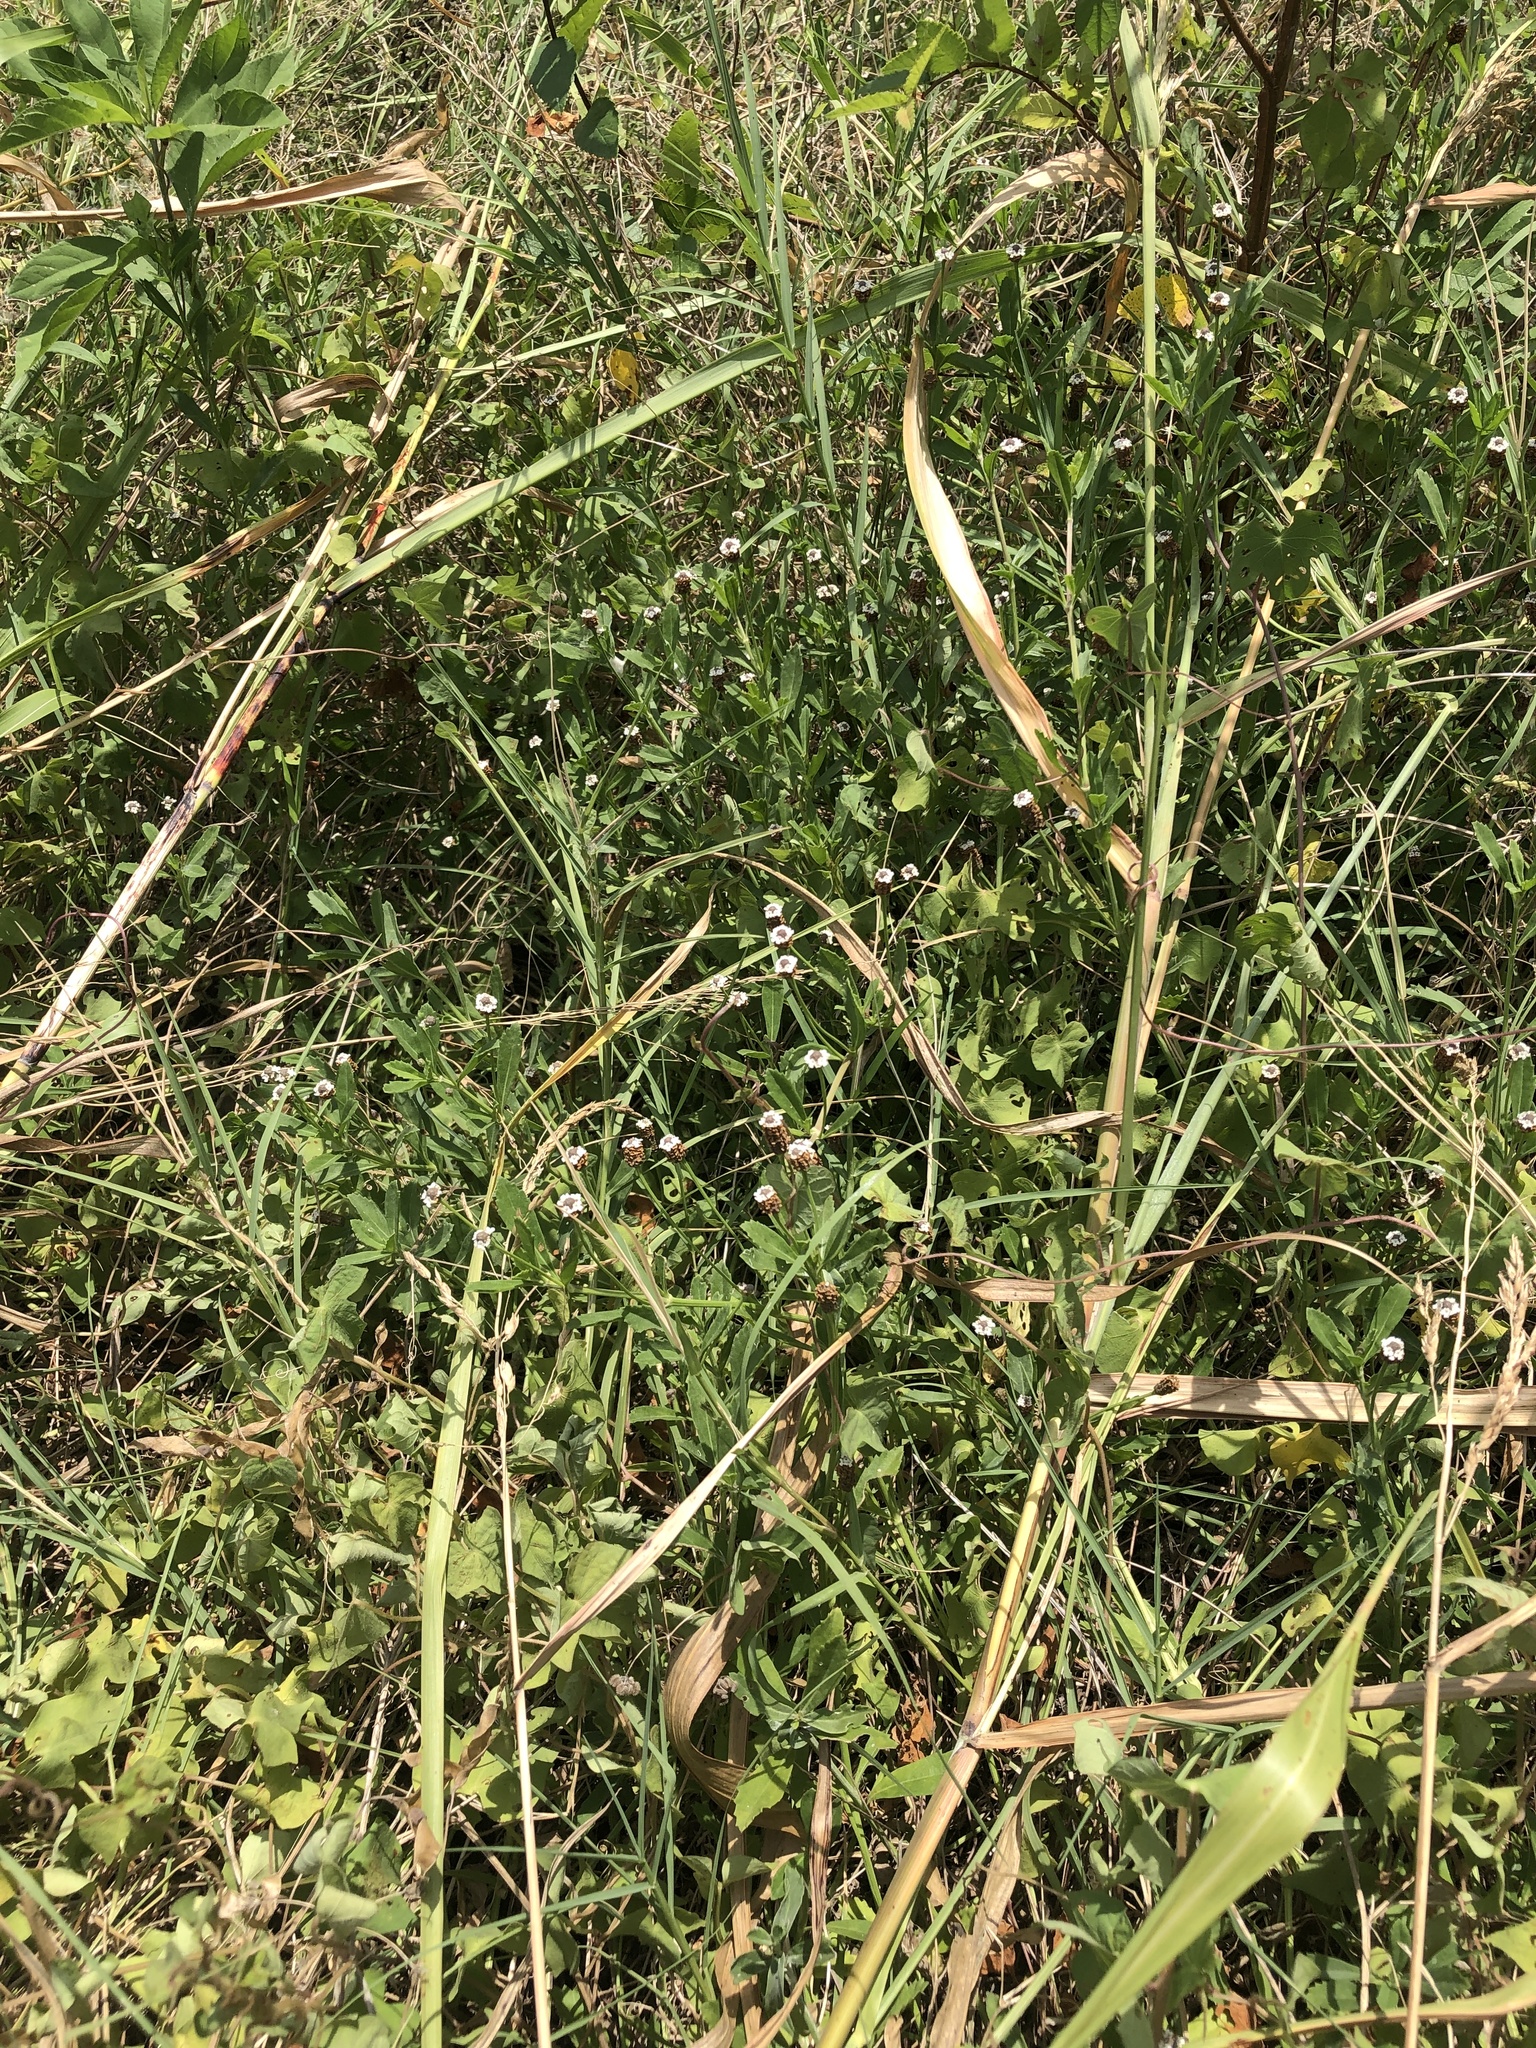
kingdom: Plantae
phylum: Tracheophyta
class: Magnoliopsida
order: Lamiales
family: Verbenaceae
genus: Phyla
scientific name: Phyla nodiflora
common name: Frogfruit
